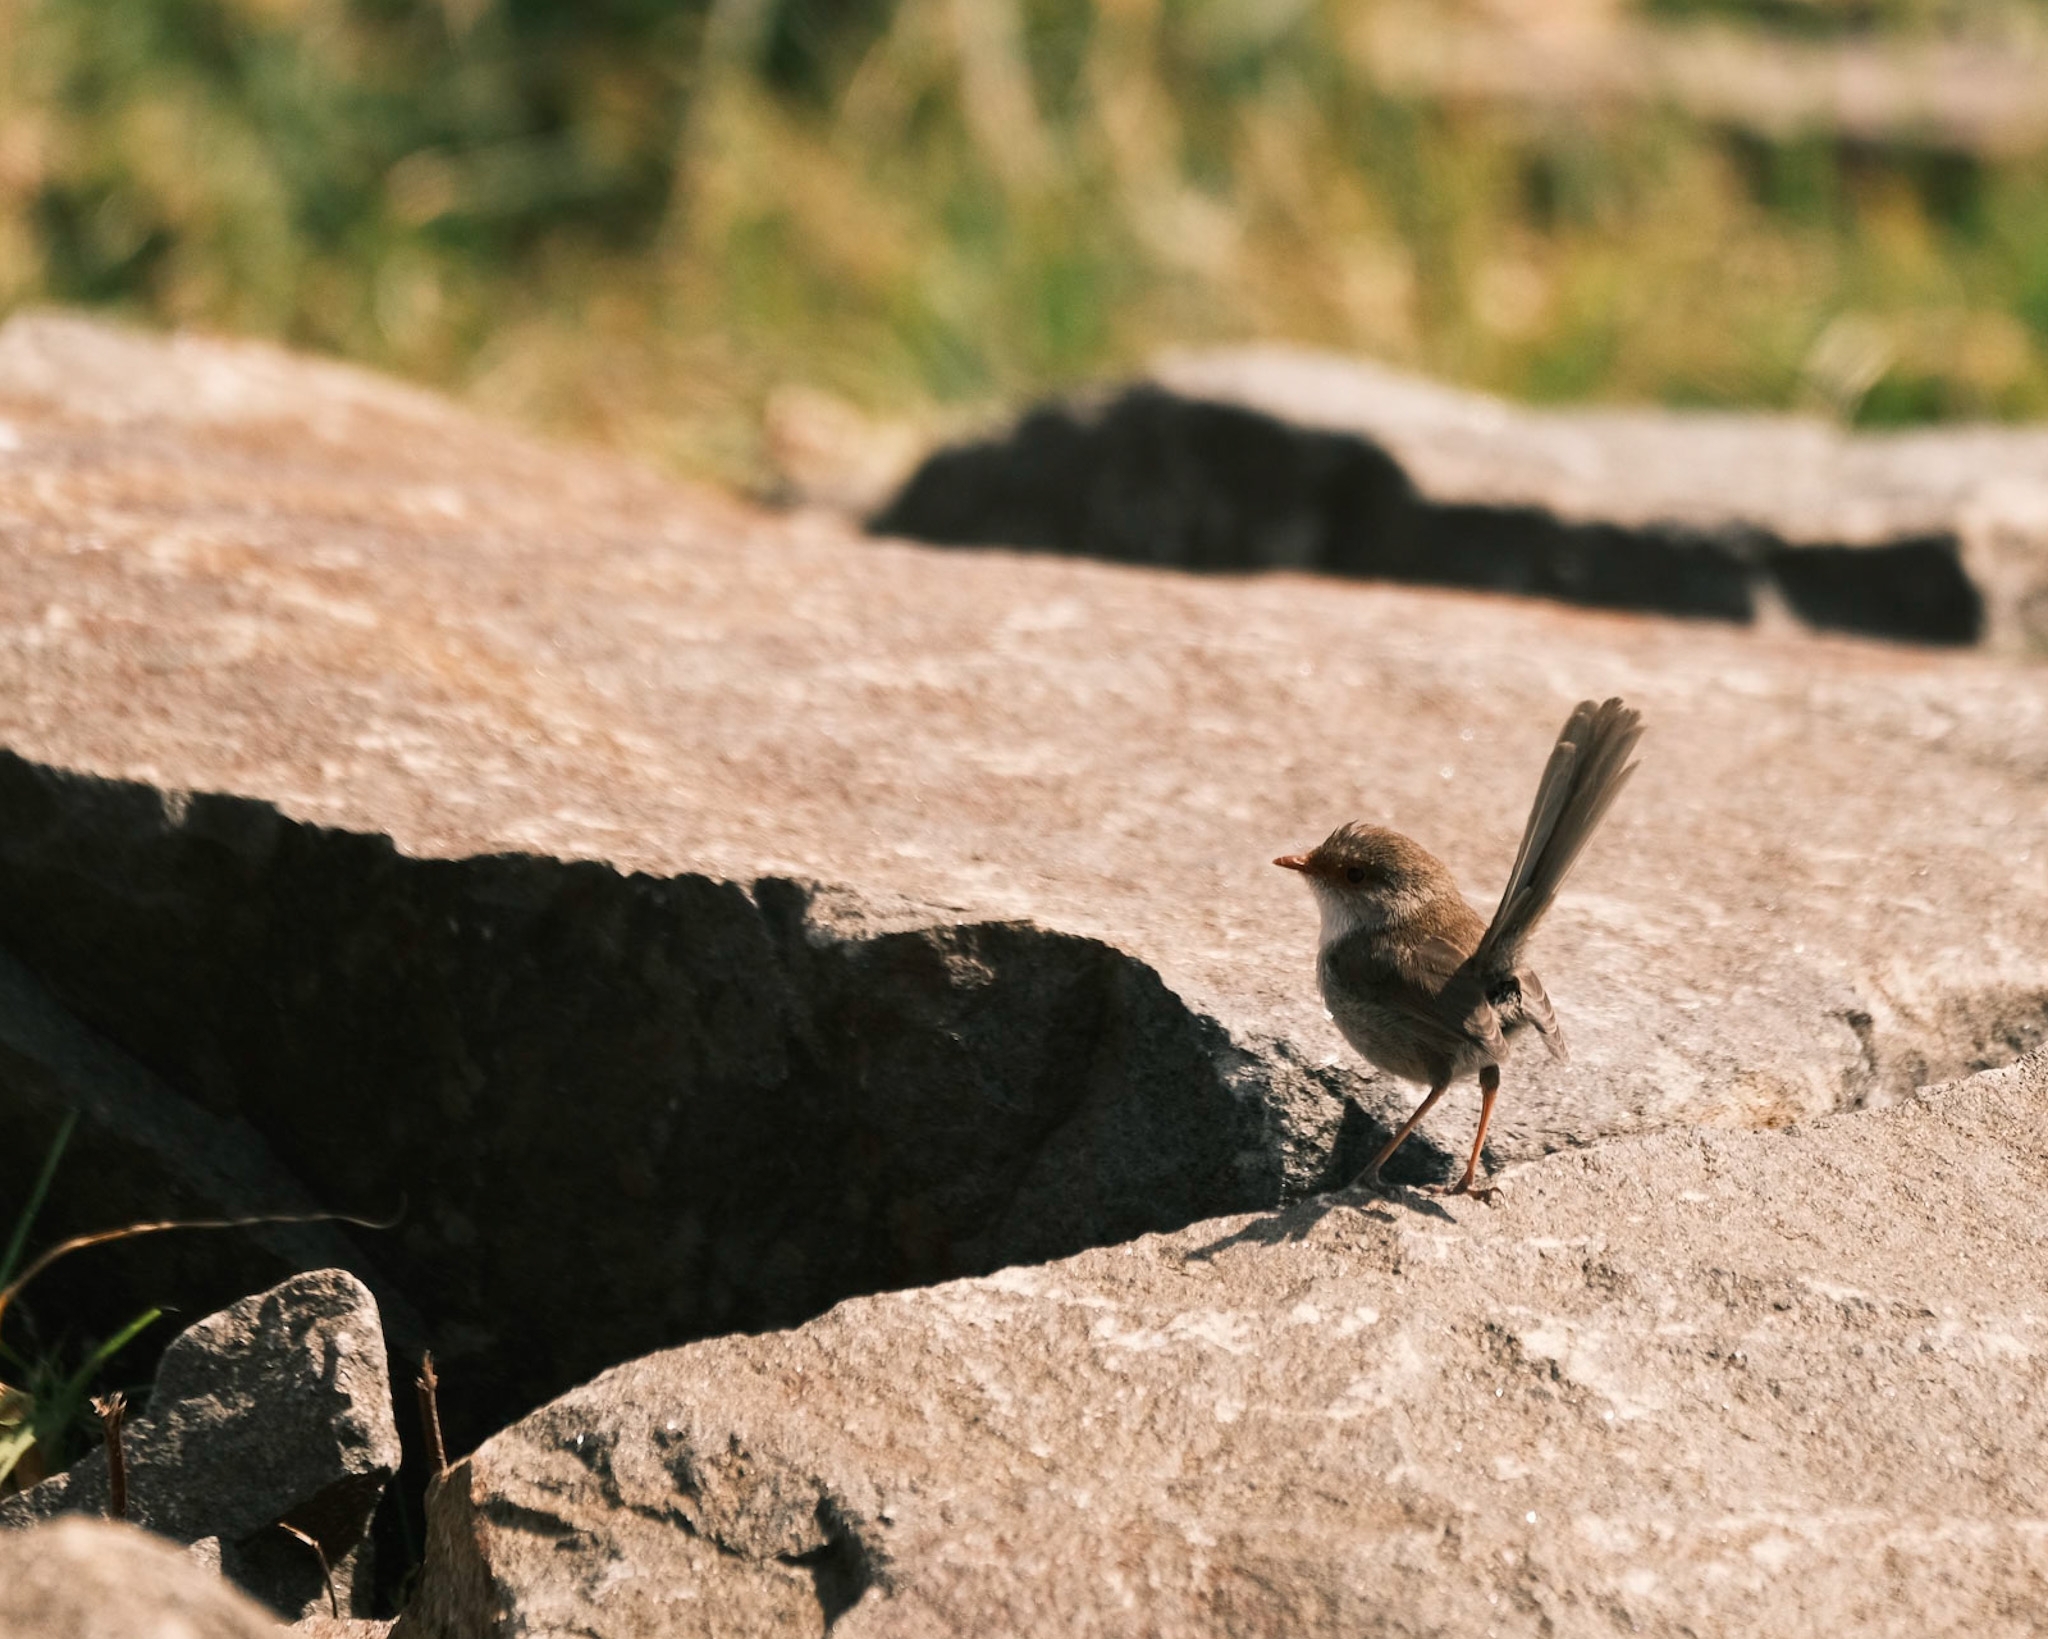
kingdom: Animalia
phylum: Chordata
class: Aves
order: Passeriformes
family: Maluridae
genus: Malurus
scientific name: Malurus cyaneus
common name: Superb fairywren
